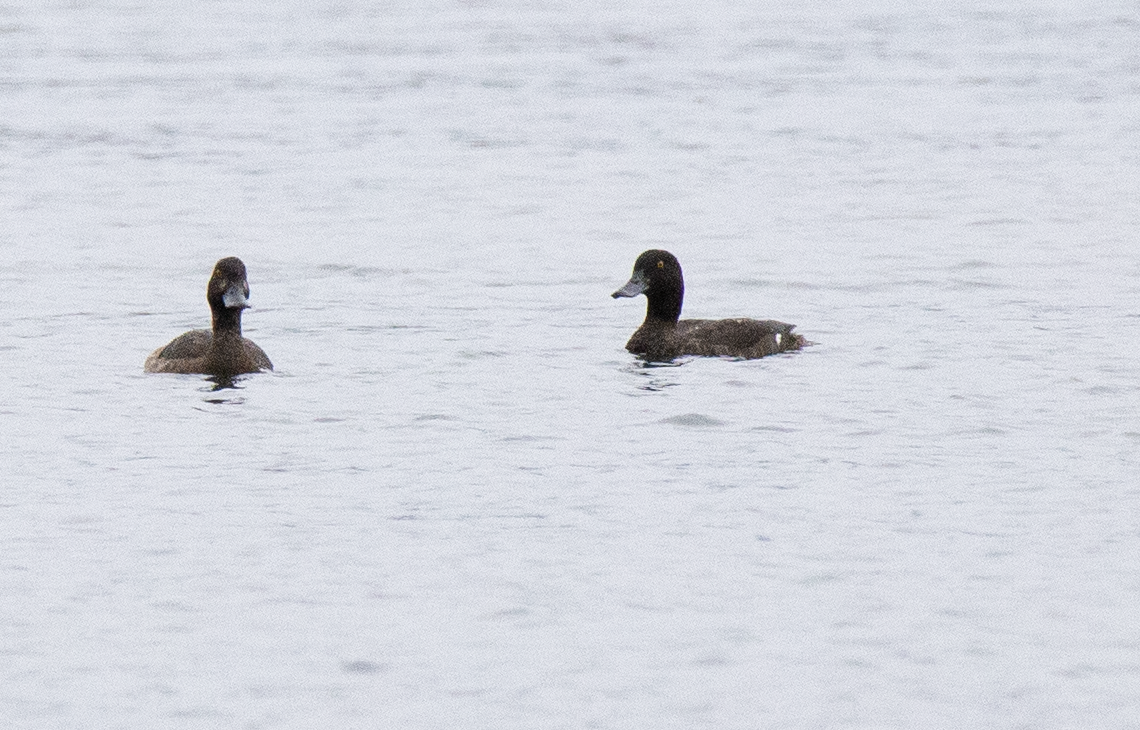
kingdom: Animalia
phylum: Chordata
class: Aves
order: Anseriformes
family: Anatidae
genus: Aythya
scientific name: Aythya fuligula
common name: Tufted duck
